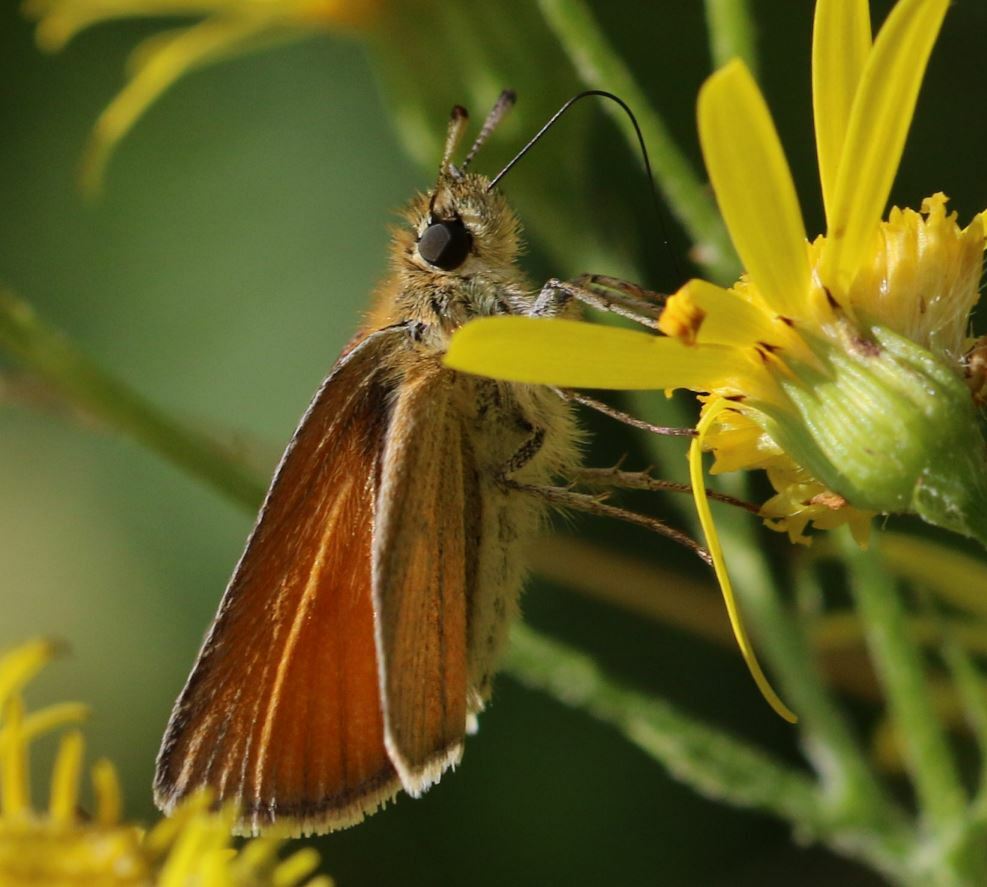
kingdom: Animalia
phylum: Arthropoda
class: Insecta
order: Lepidoptera
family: Hesperiidae
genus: Thymelicus
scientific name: Thymelicus lineola
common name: Essex skipper
